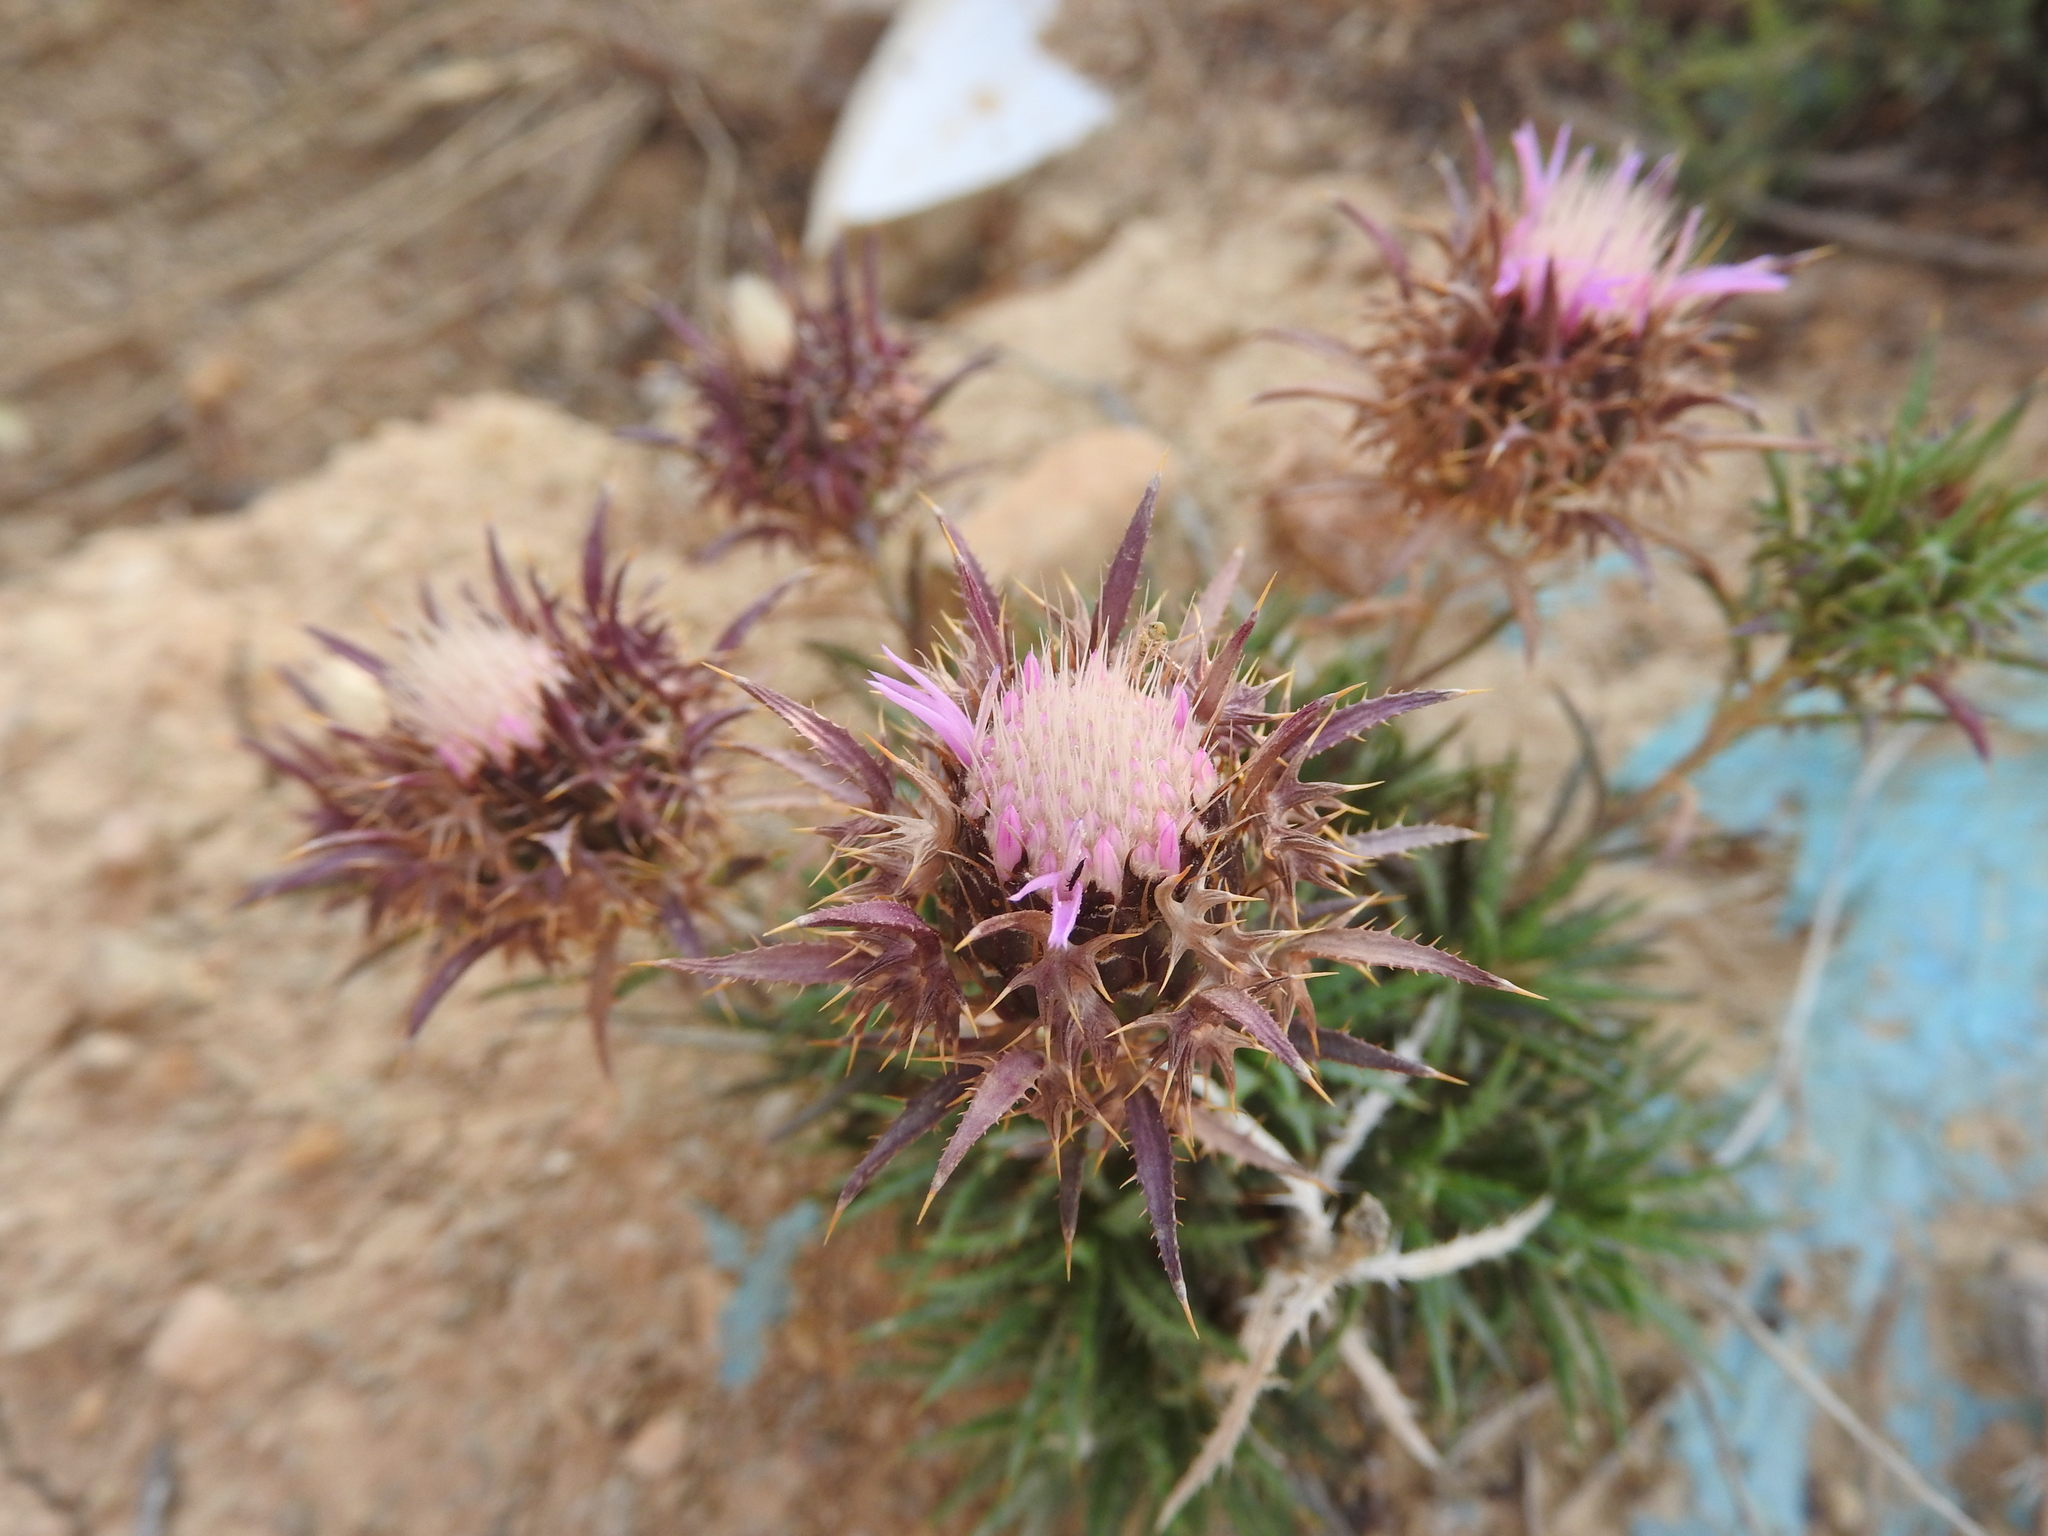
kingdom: Plantae
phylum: Tracheophyta
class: Magnoliopsida
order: Asterales
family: Asteraceae
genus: Atractylis
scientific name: Atractylis caespitosa
